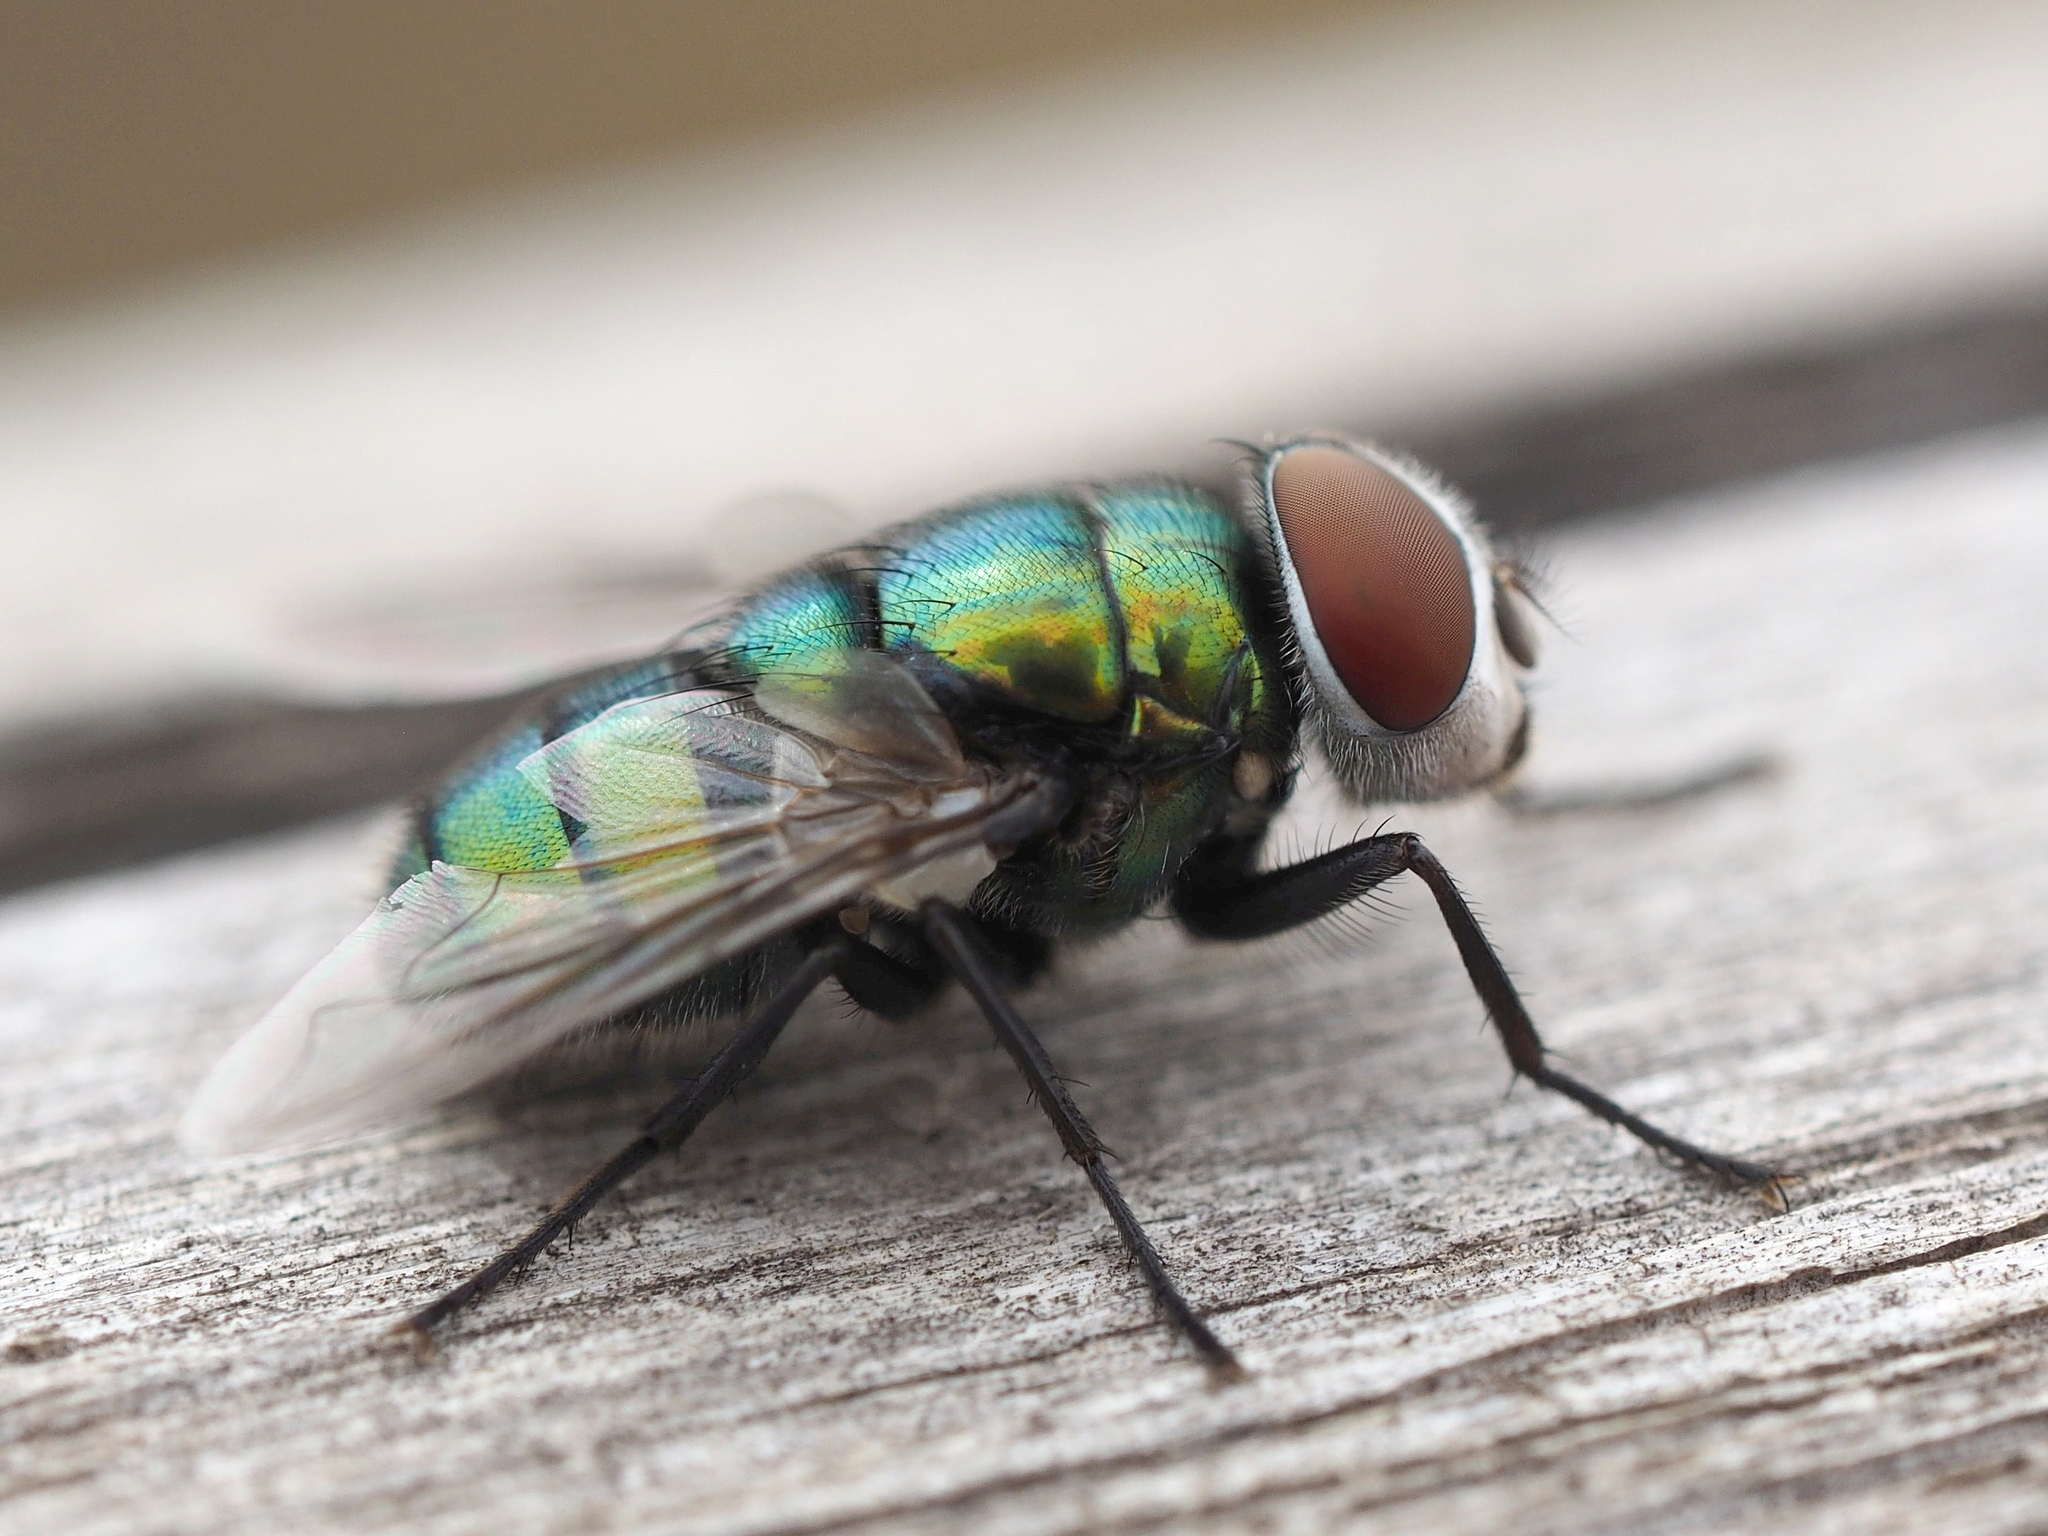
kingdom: Animalia
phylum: Arthropoda
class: Insecta
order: Diptera
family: Calliphoridae
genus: Chrysomya
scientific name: Chrysomya albiceps
